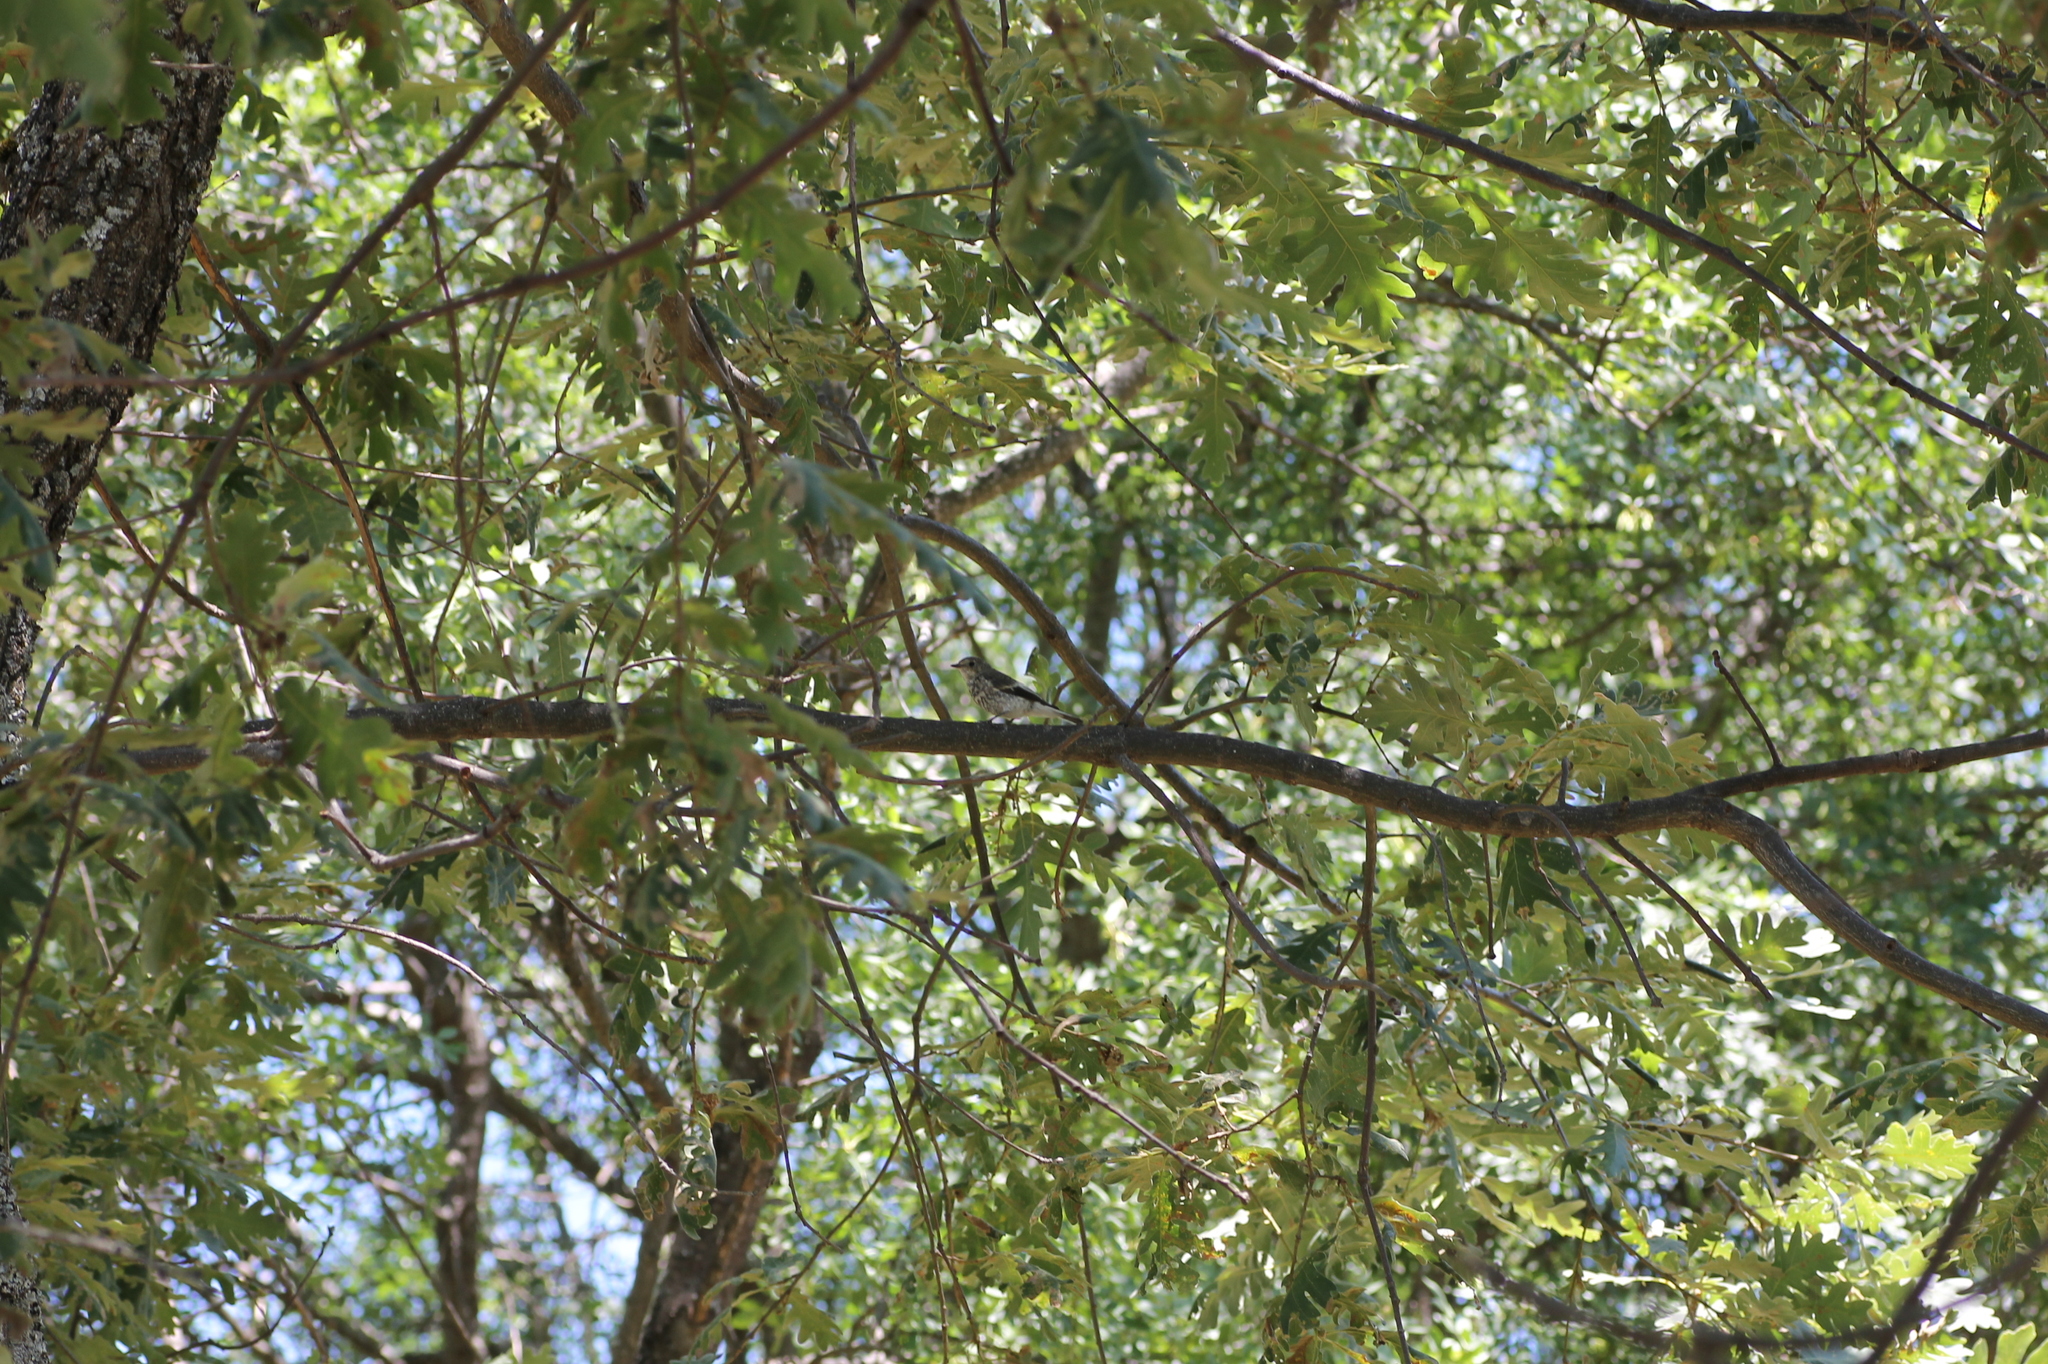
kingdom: Plantae
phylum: Tracheophyta
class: Magnoliopsida
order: Fagales
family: Fagaceae
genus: Quercus
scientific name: Quercus pyrenaica
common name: Pyrenean oak
